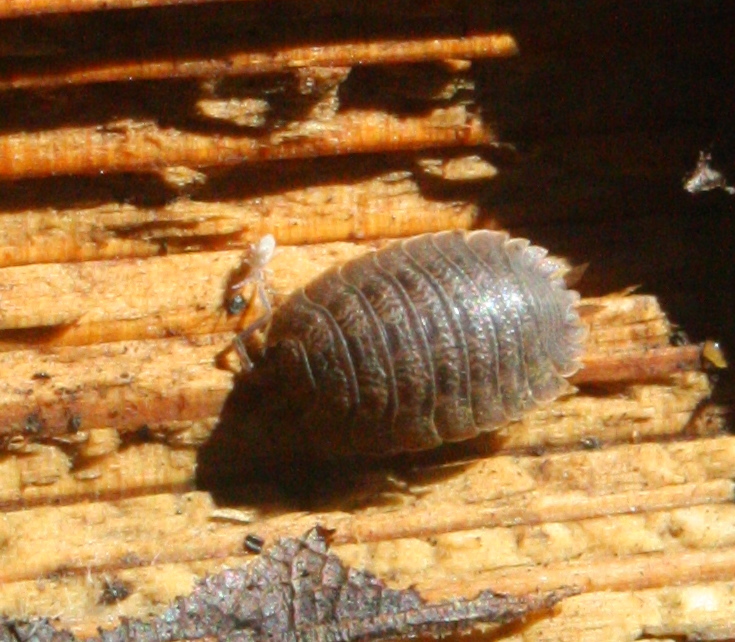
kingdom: Animalia
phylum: Arthropoda
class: Malacostraca
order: Isopoda
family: Porcellionidae
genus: Porcellio
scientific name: Porcellio dilatatus
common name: Isopod
